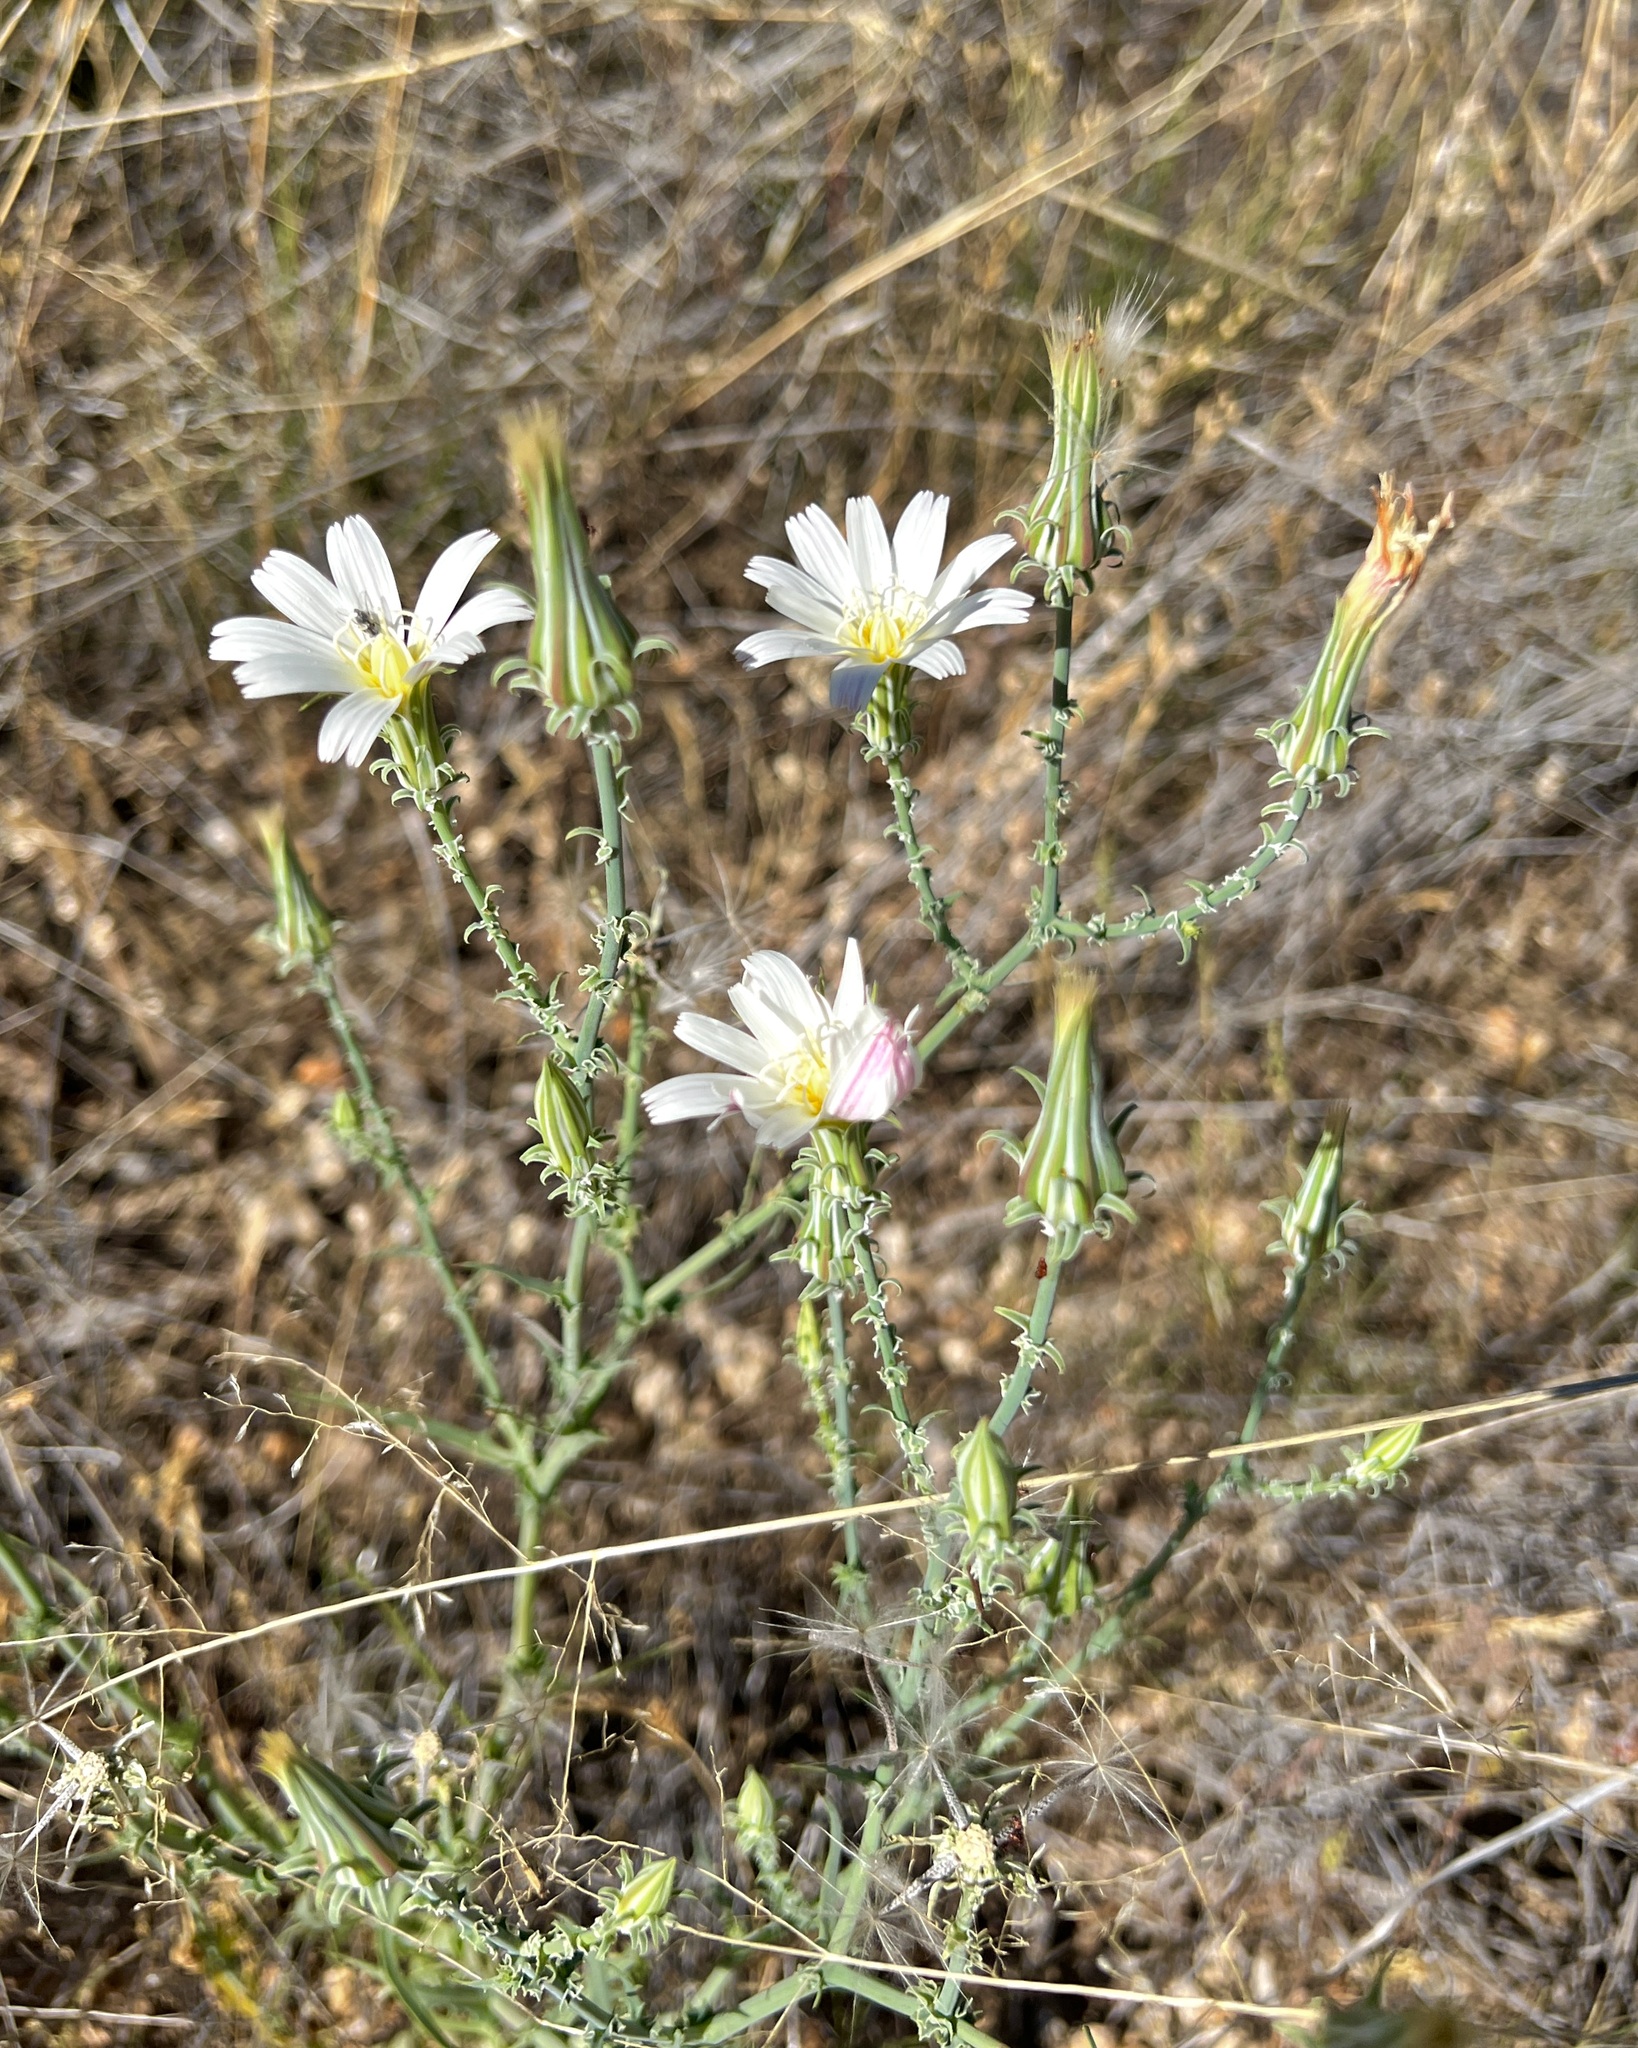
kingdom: Plantae
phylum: Tracheophyta
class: Magnoliopsida
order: Asterales
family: Asteraceae
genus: Rafinesquia
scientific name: Rafinesquia neomexicana
